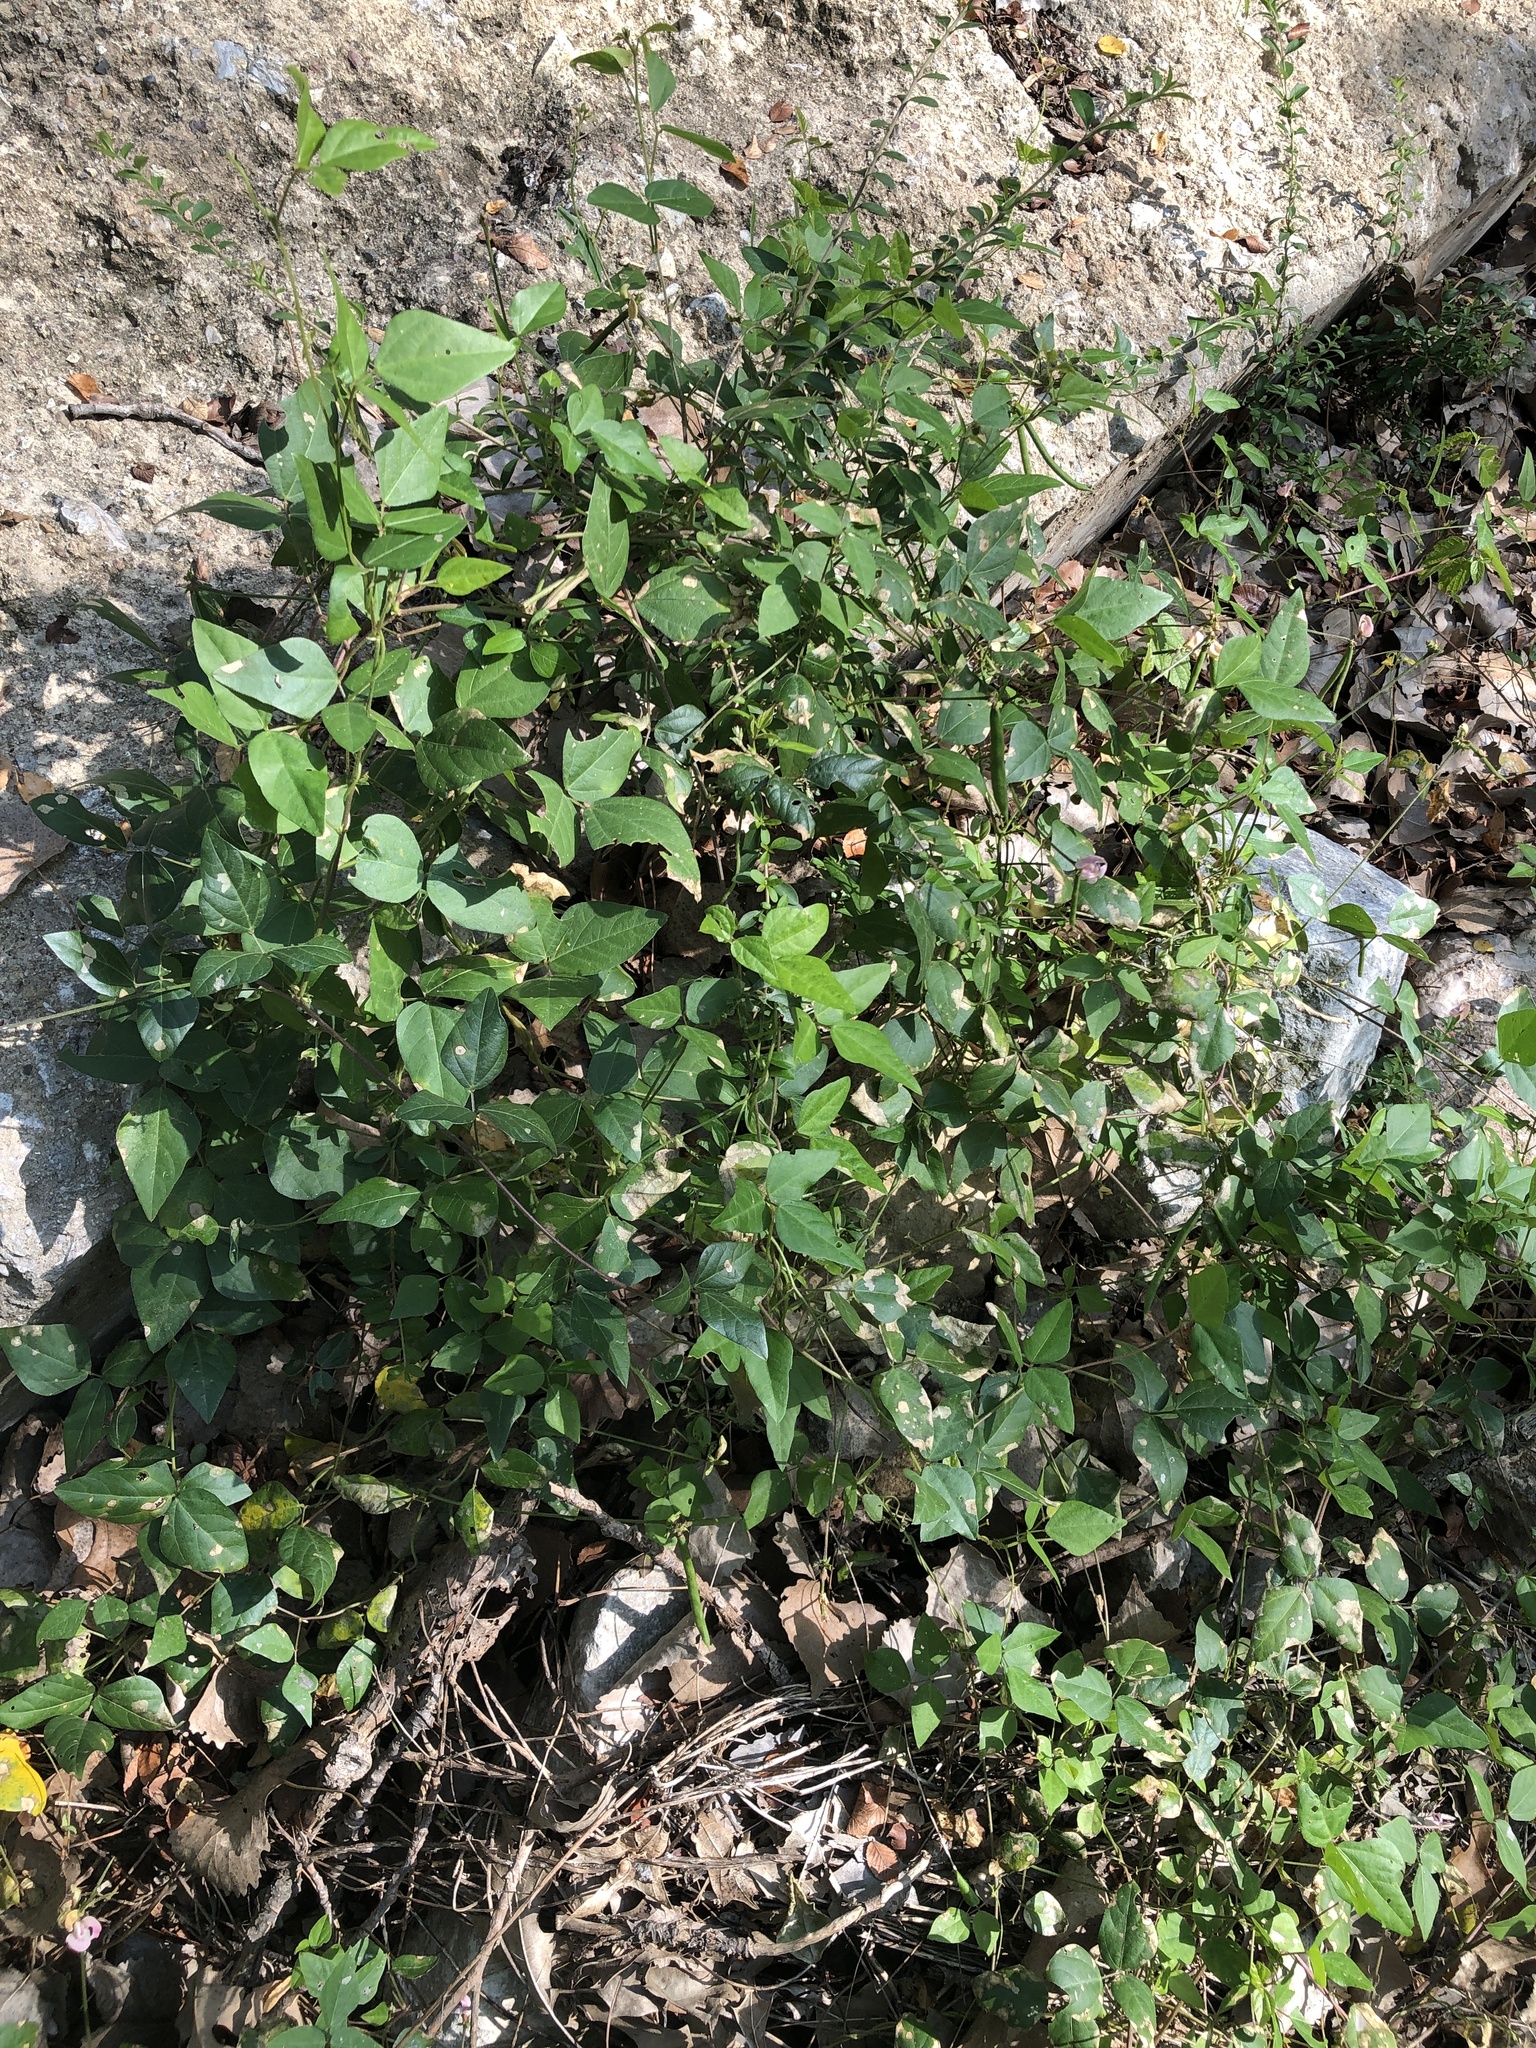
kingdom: Plantae
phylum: Tracheophyta
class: Magnoliopsida
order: Fabales
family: Fabaceae
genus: Strophostyles
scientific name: Strophostyles helvola
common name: Trailing wild bean
